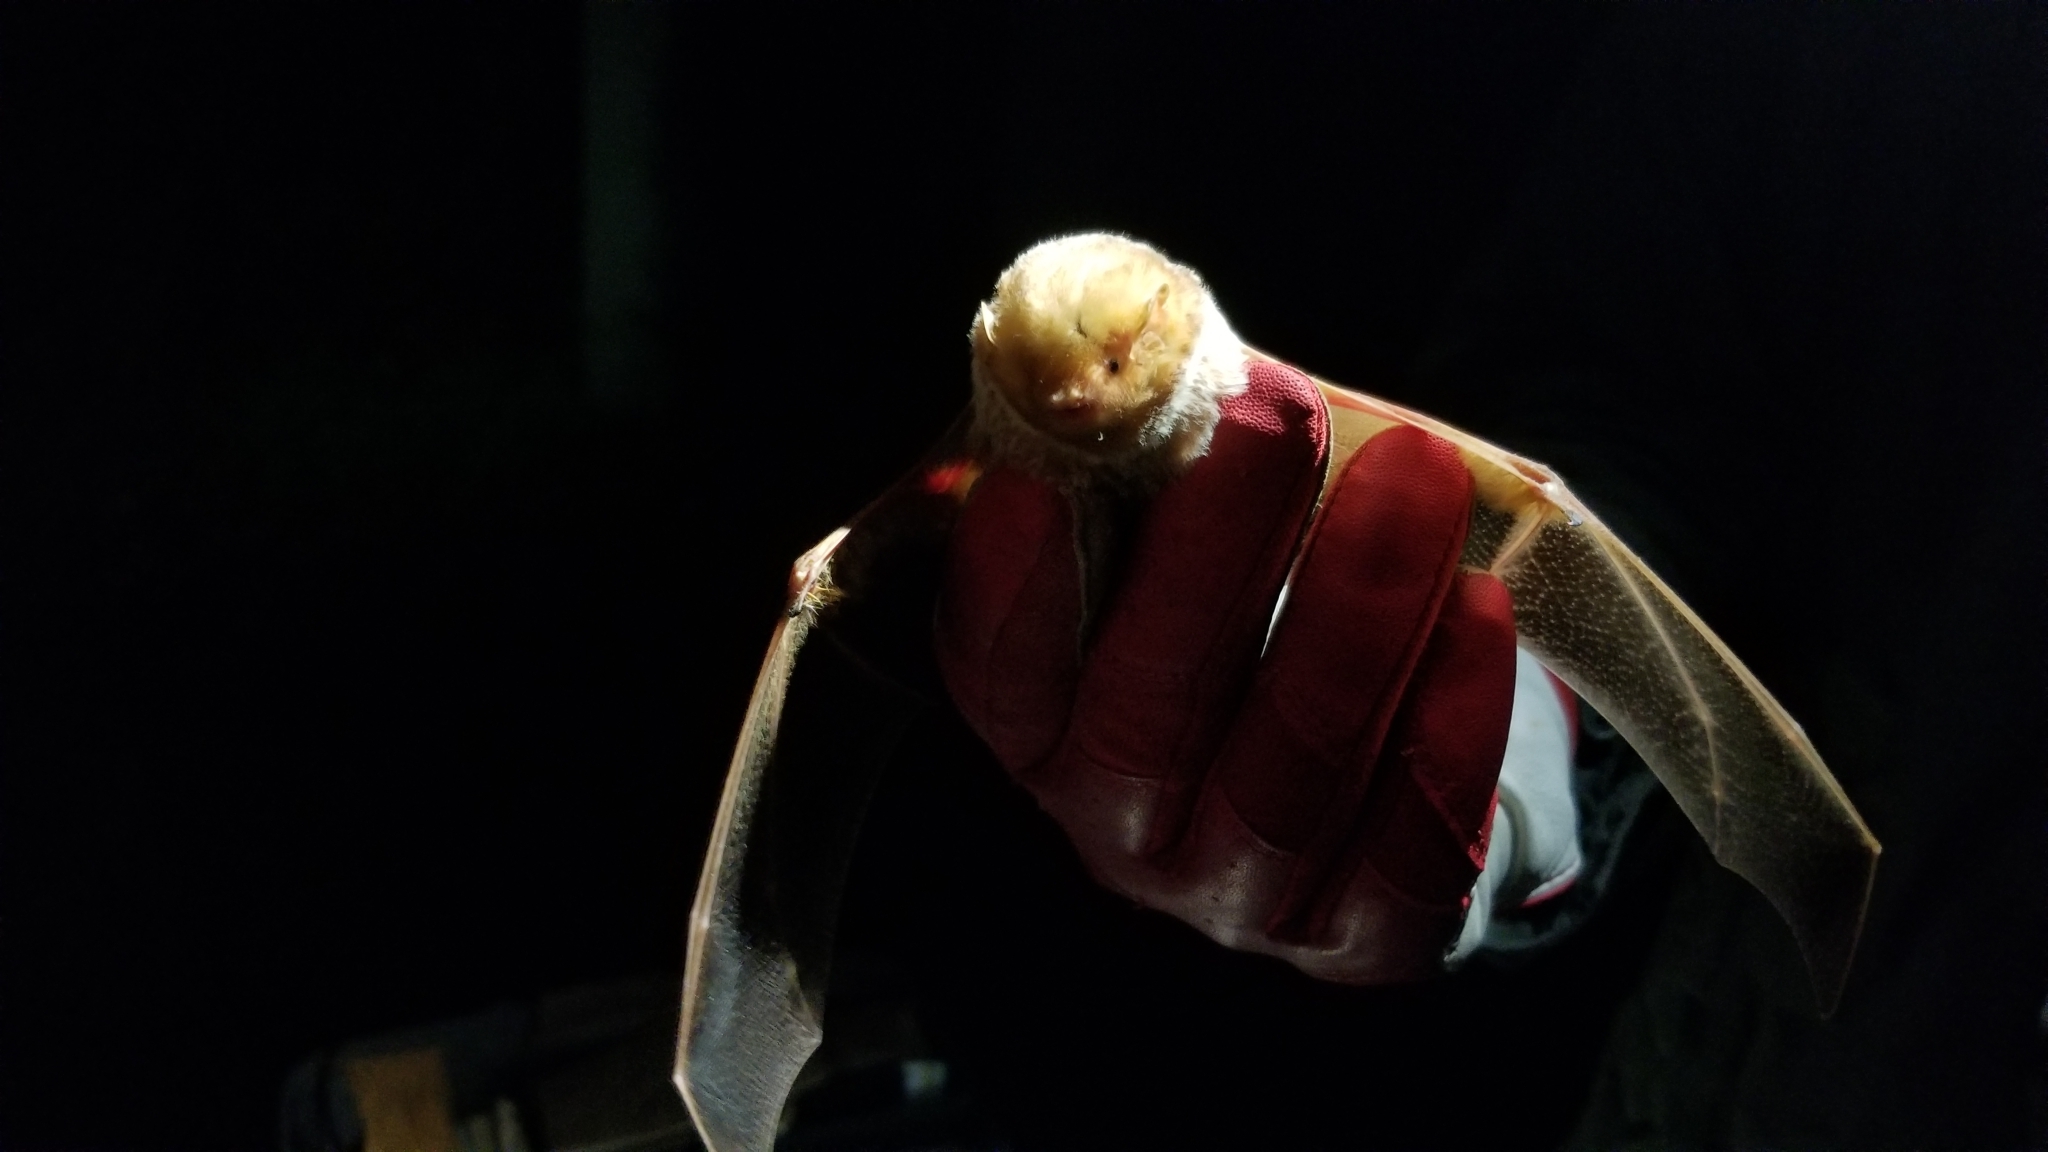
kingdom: Animalia
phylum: Chordata
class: Mammalia
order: Chiroptera
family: Vespertilionidae
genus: Lasiurus
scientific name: Lasiurus borealis
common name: Eastern red bat
